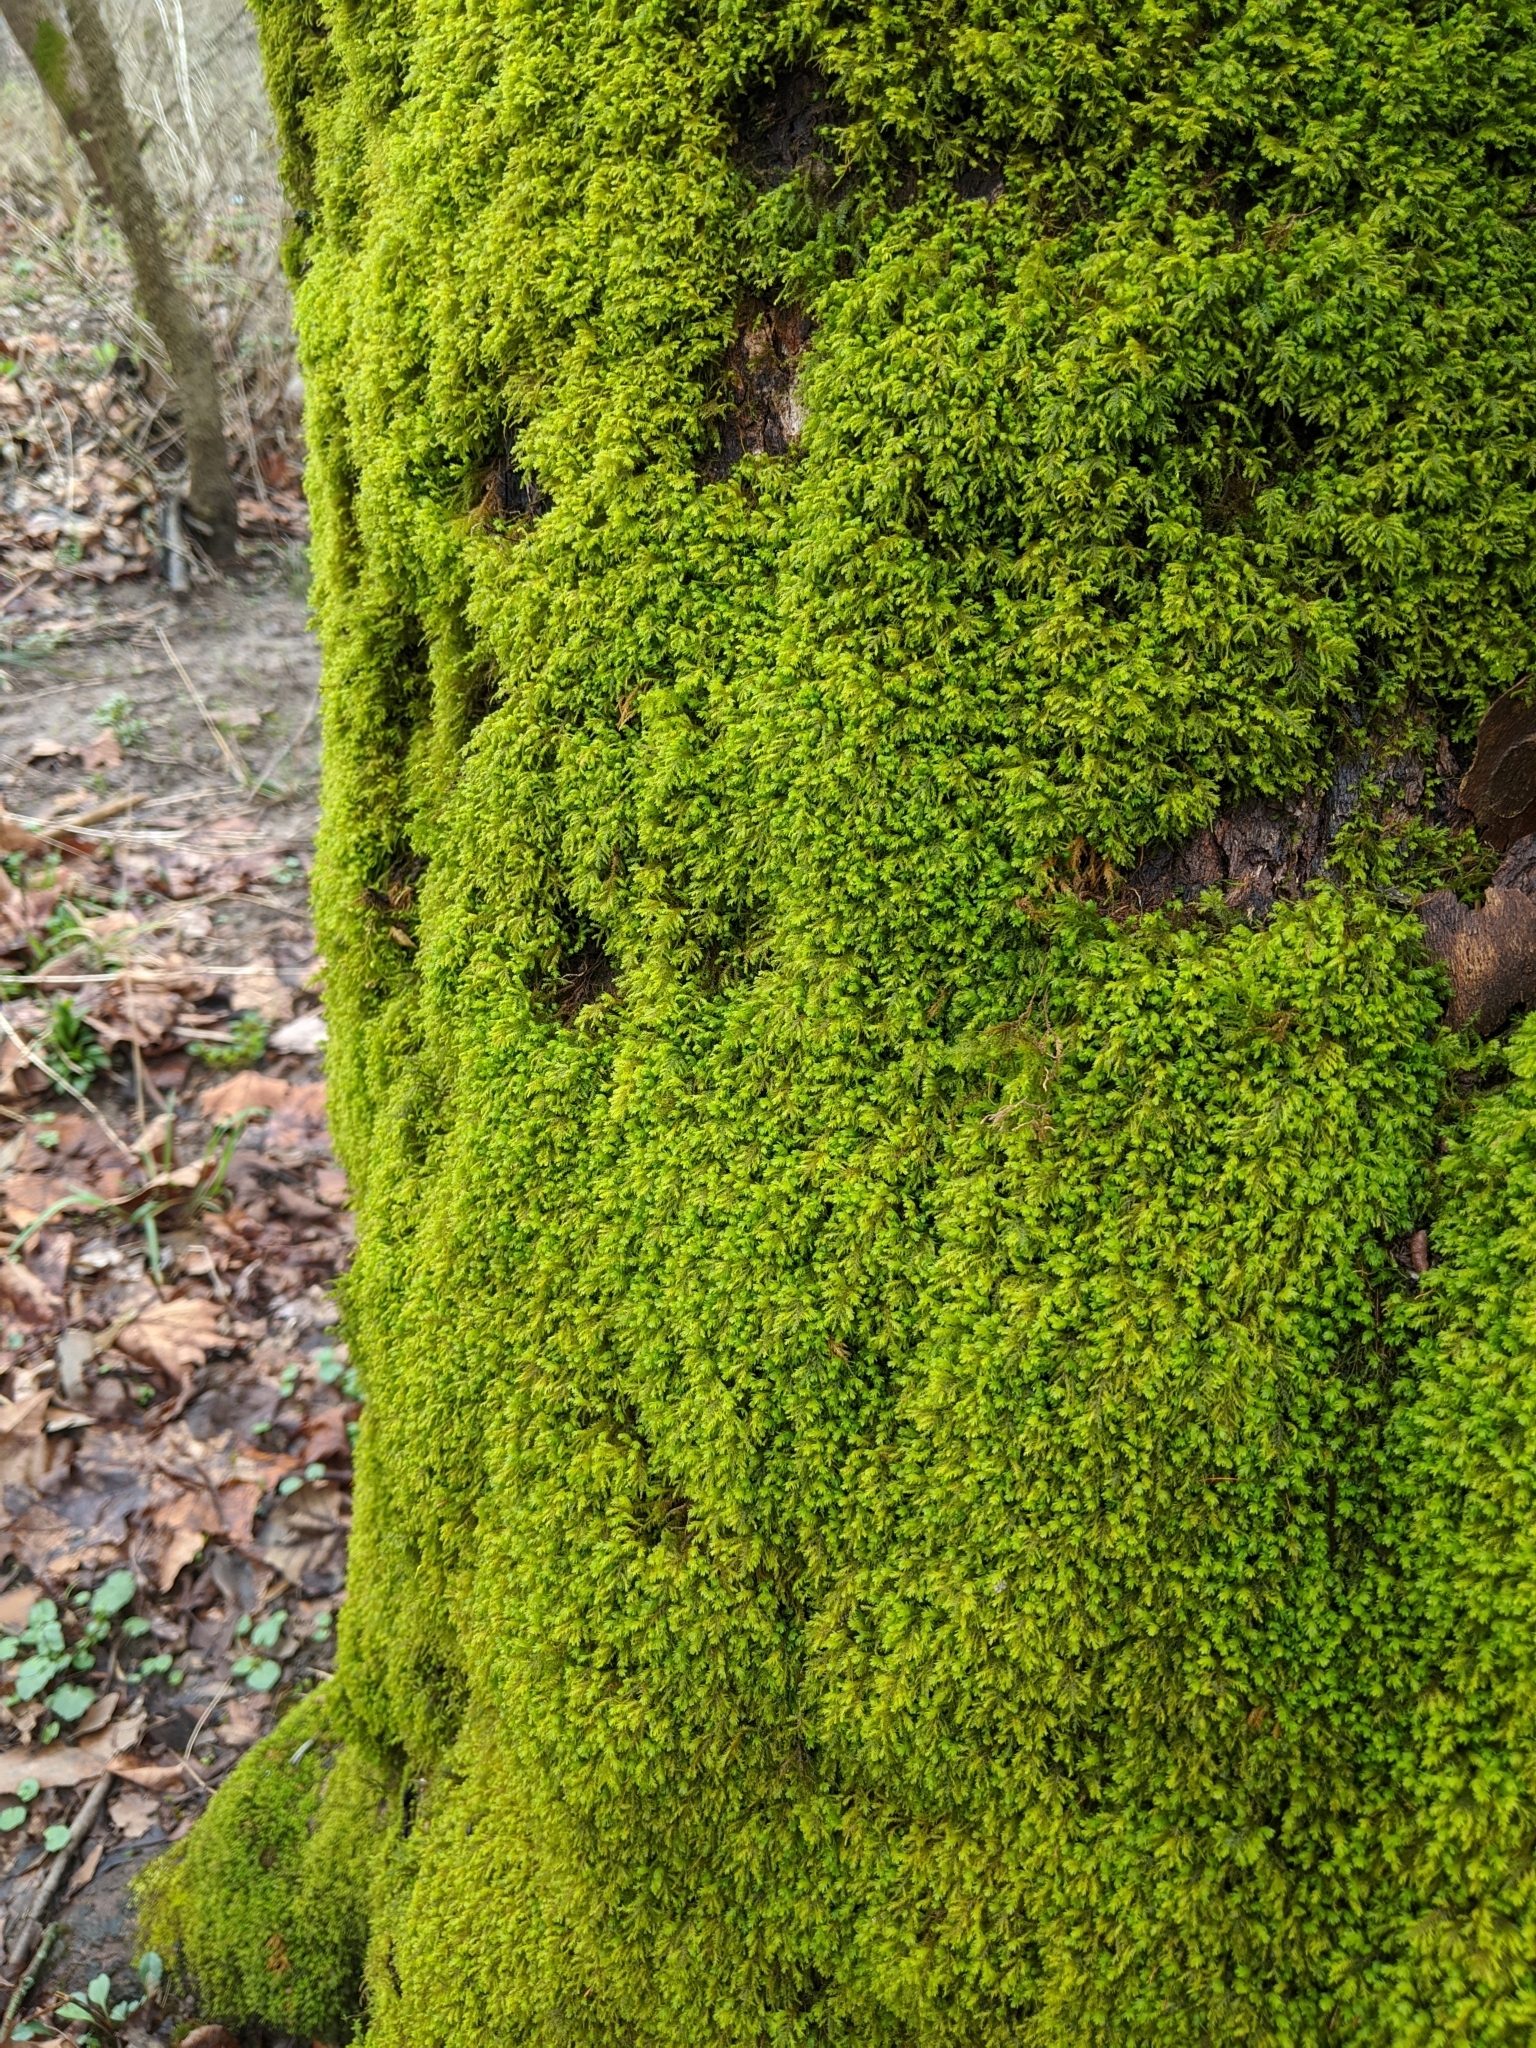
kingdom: Plantae
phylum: Bryophyta
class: Bryopsida
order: Hypnales
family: Neckeraceae
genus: Pseudanomodon
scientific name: Pseudanomodon attenuatus
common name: Tree-skirt moss
